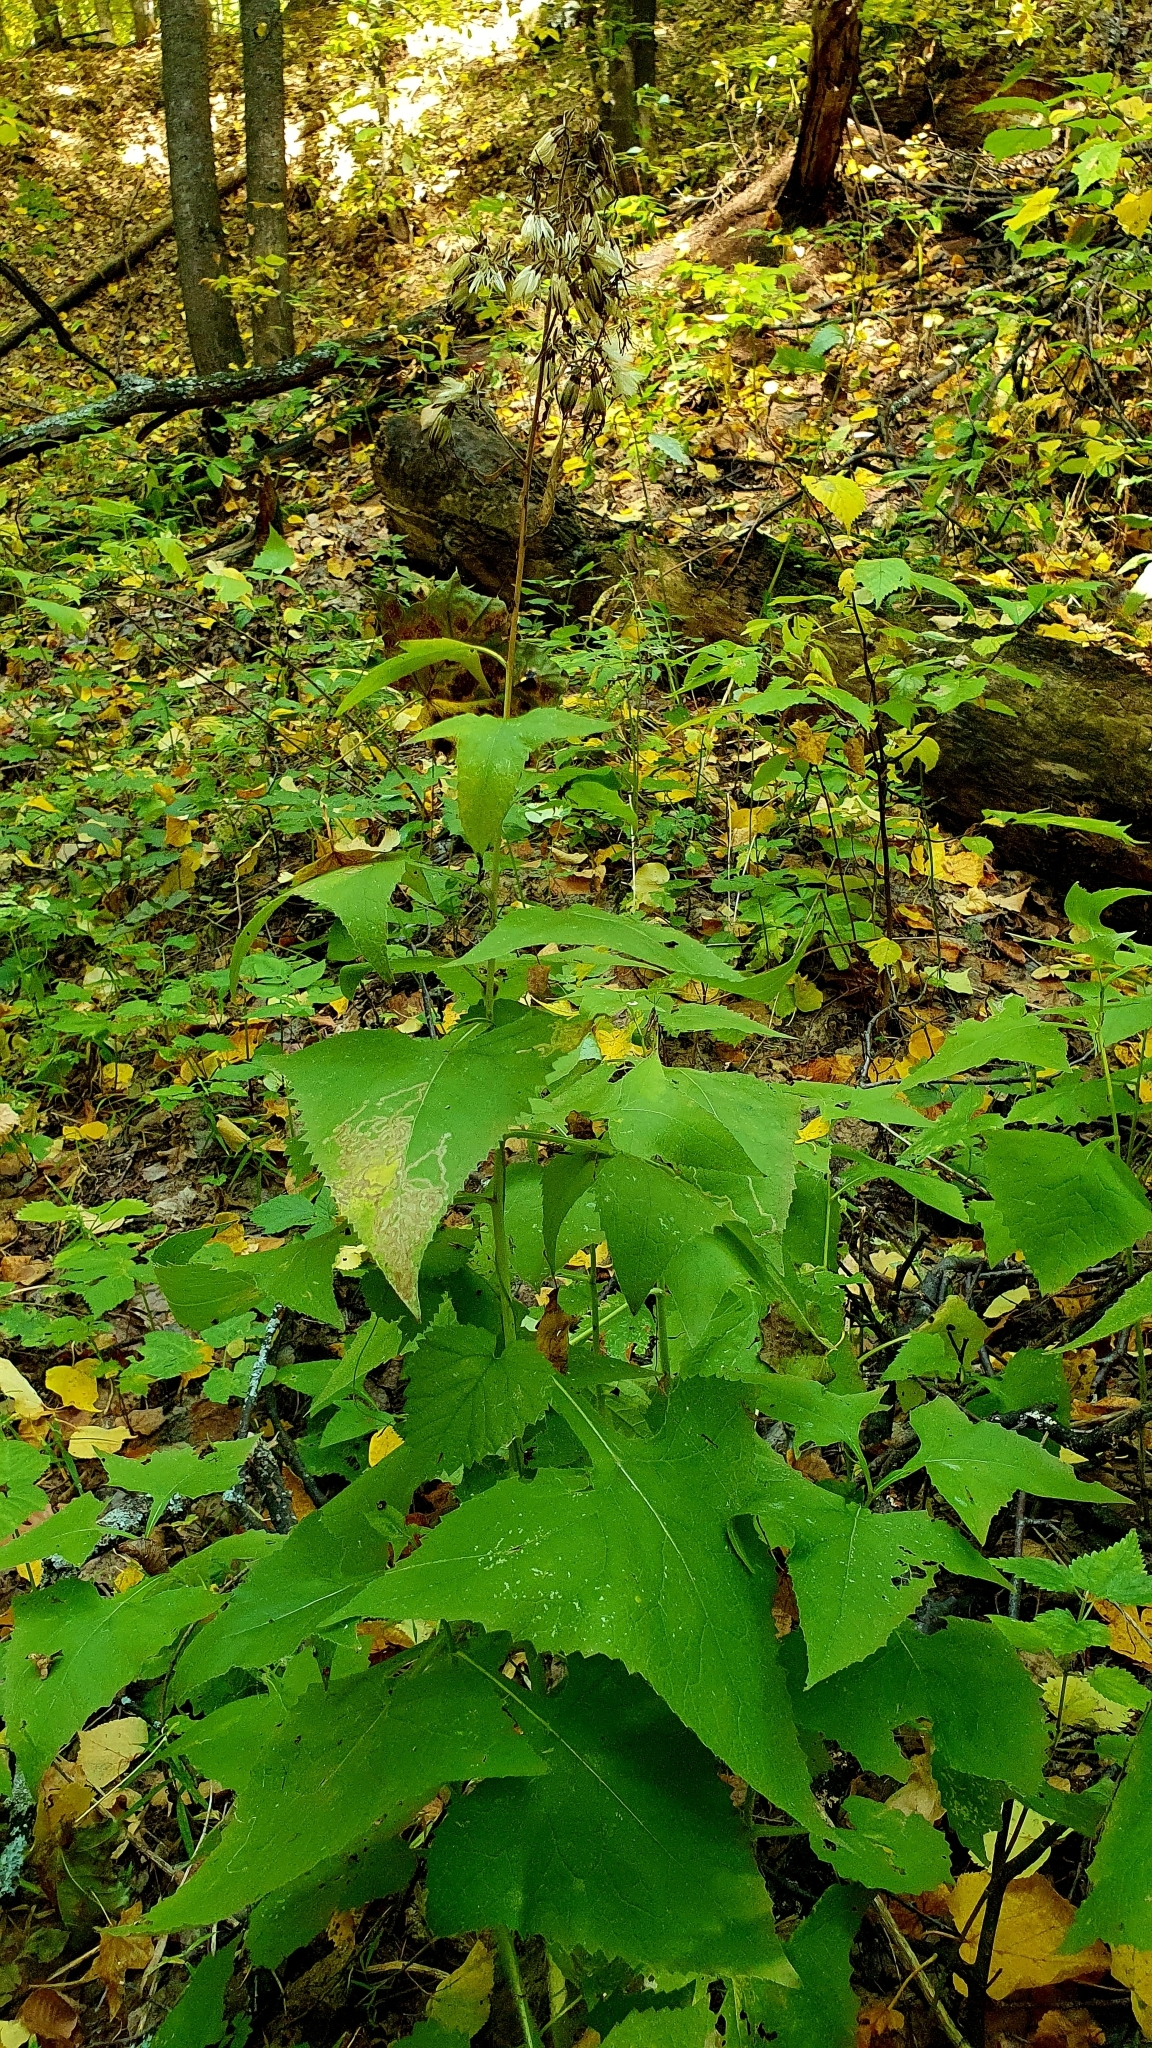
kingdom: Plantae
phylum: Tracheophyta
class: Magnoliopsida
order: Asterales
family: Asteraceae
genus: Parasenecio
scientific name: Parasenecio hastatus
